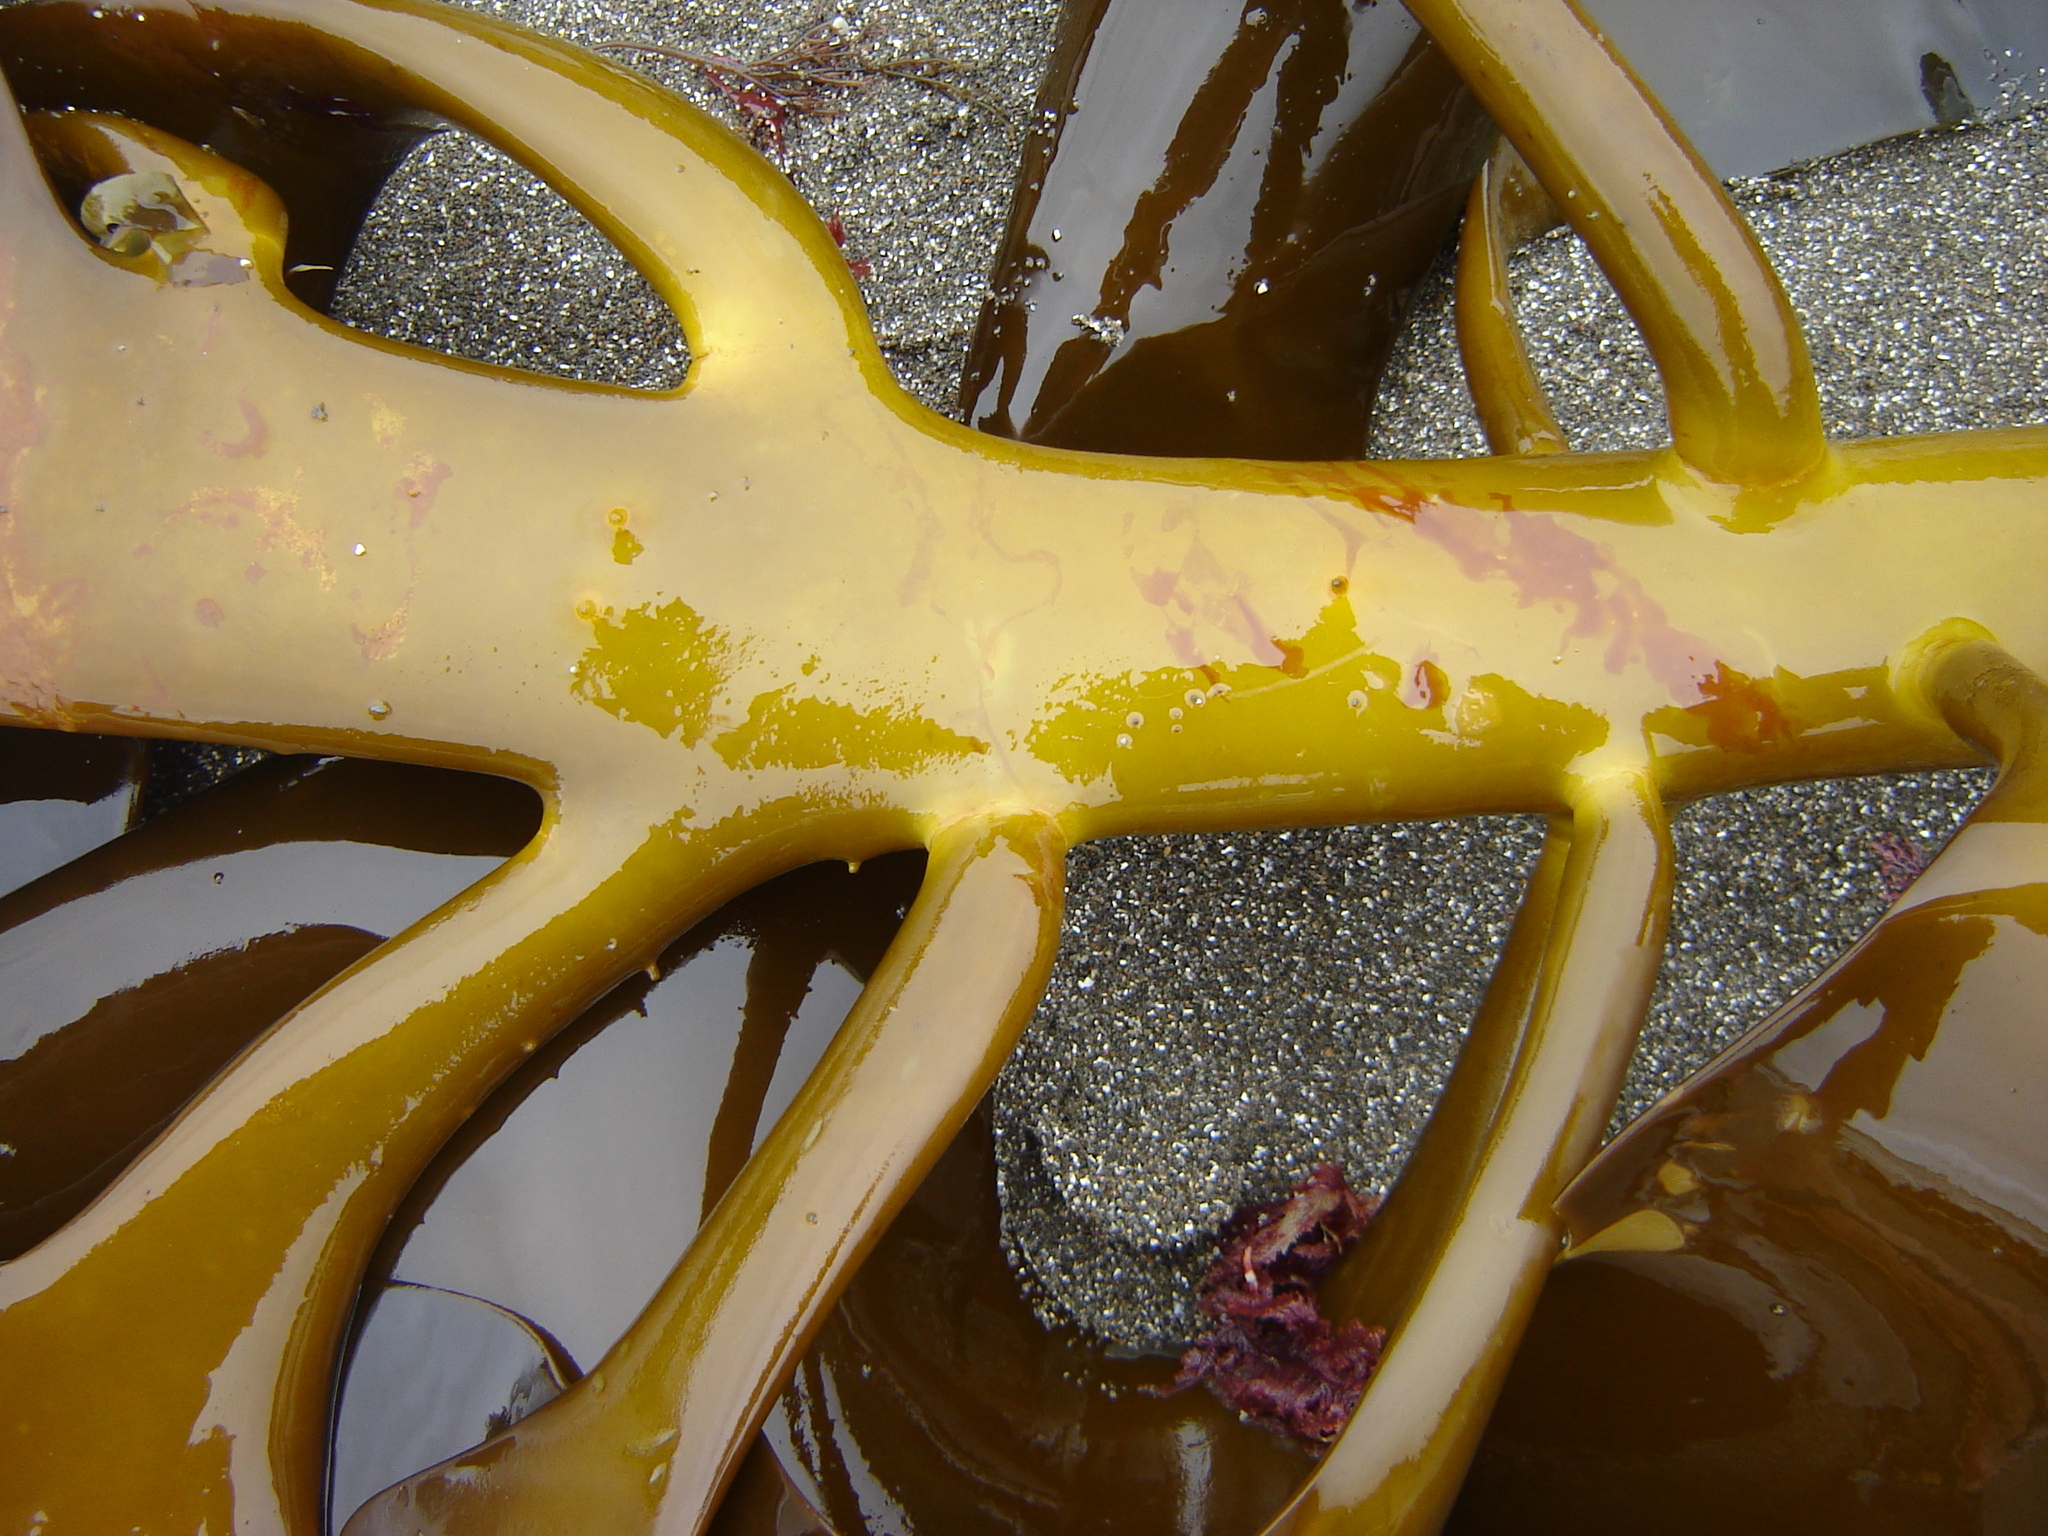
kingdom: Chromista
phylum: Ochrophyta
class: Phaeophyceae
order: Fucales
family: Durvillaeaceae
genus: Durvillaea
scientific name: Durvillaea willana
